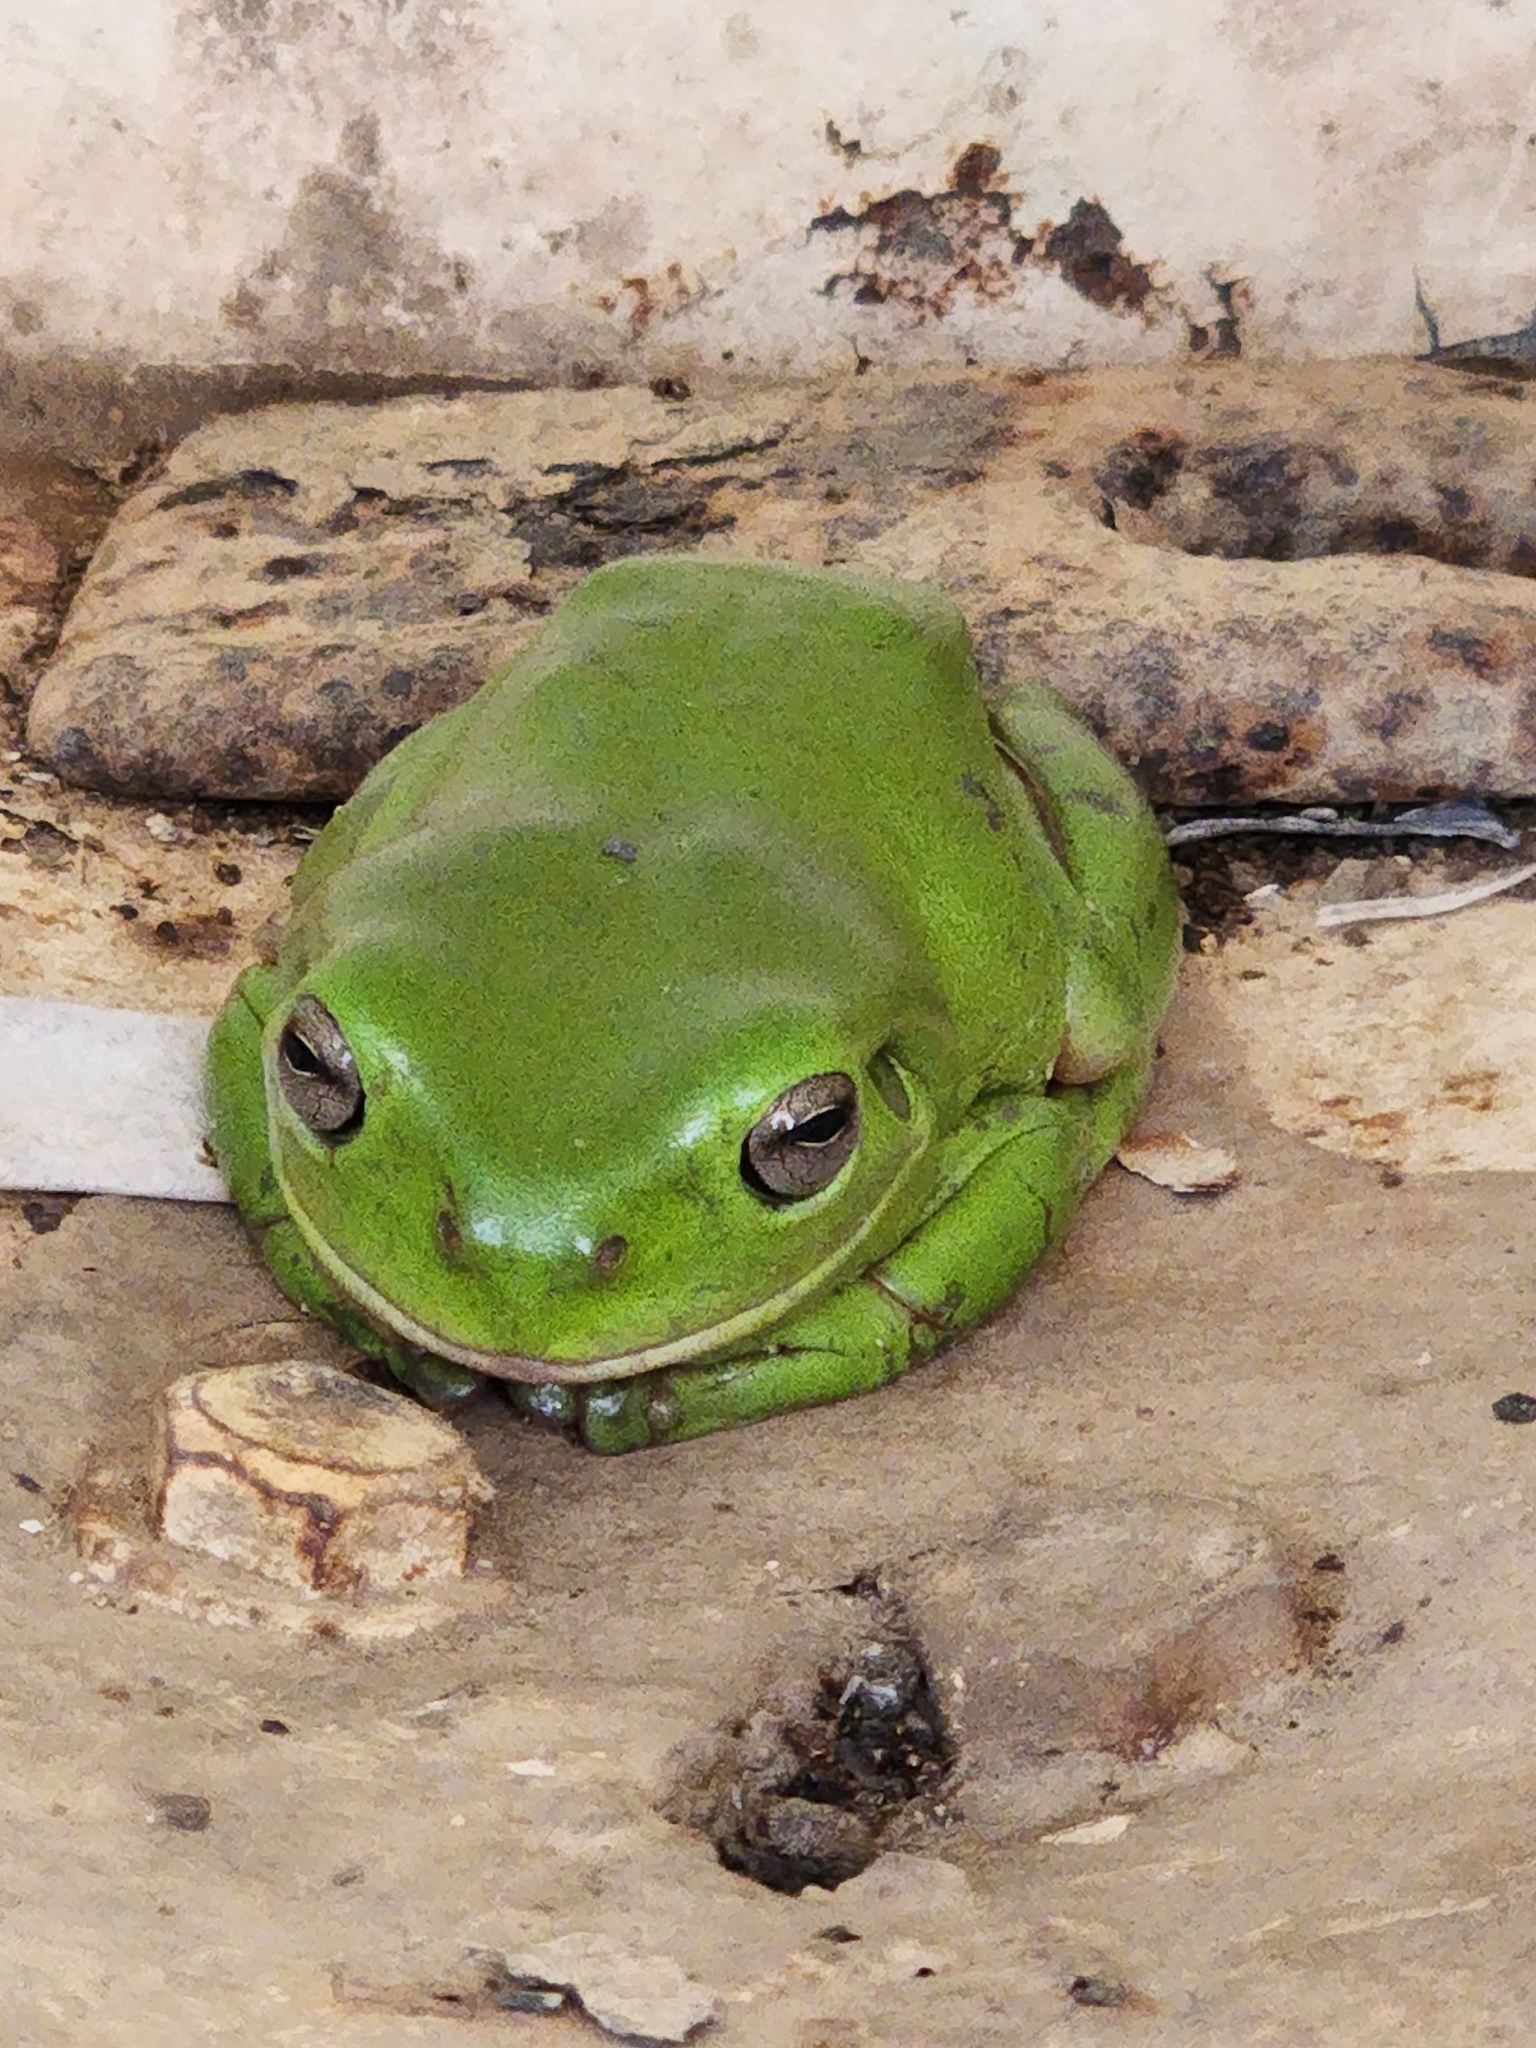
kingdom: Animalia
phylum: Chordata
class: Amphibia
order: Anura
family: Pelodryadidae
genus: Ranoidea
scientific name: Ranoidea caerulea
